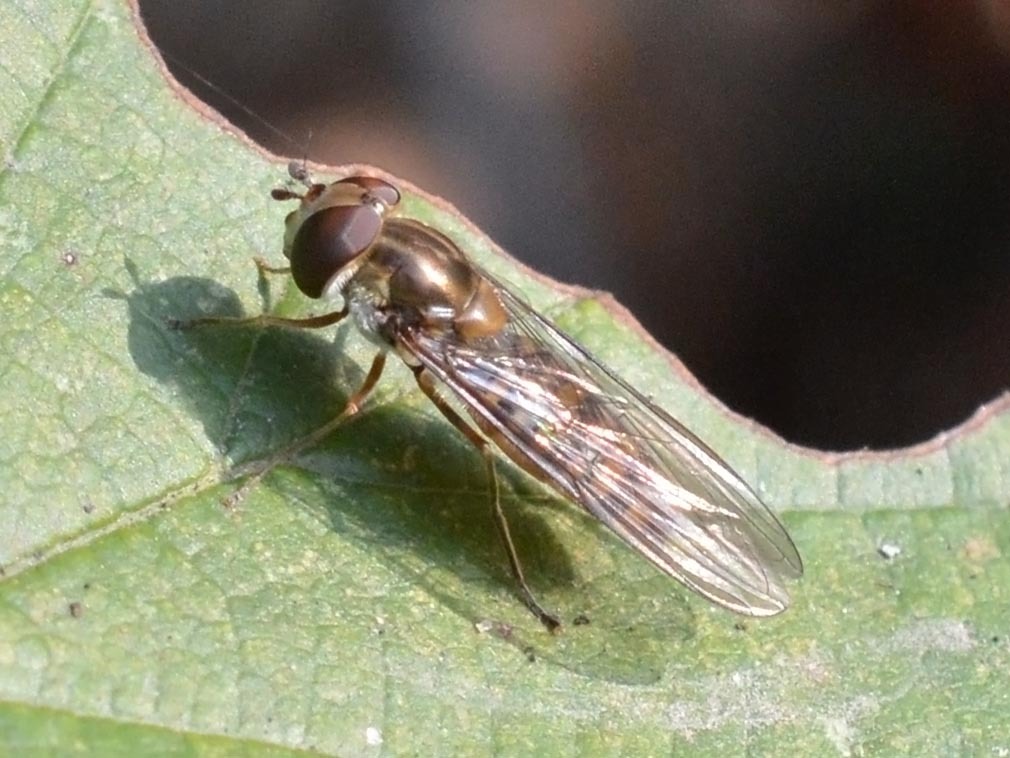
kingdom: Animalia
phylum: Arthropoda
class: Insecta
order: Diptera
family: Syrphidae
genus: Episyrphus
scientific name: Episyrphus balteatus
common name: Marmalade hoverfly
